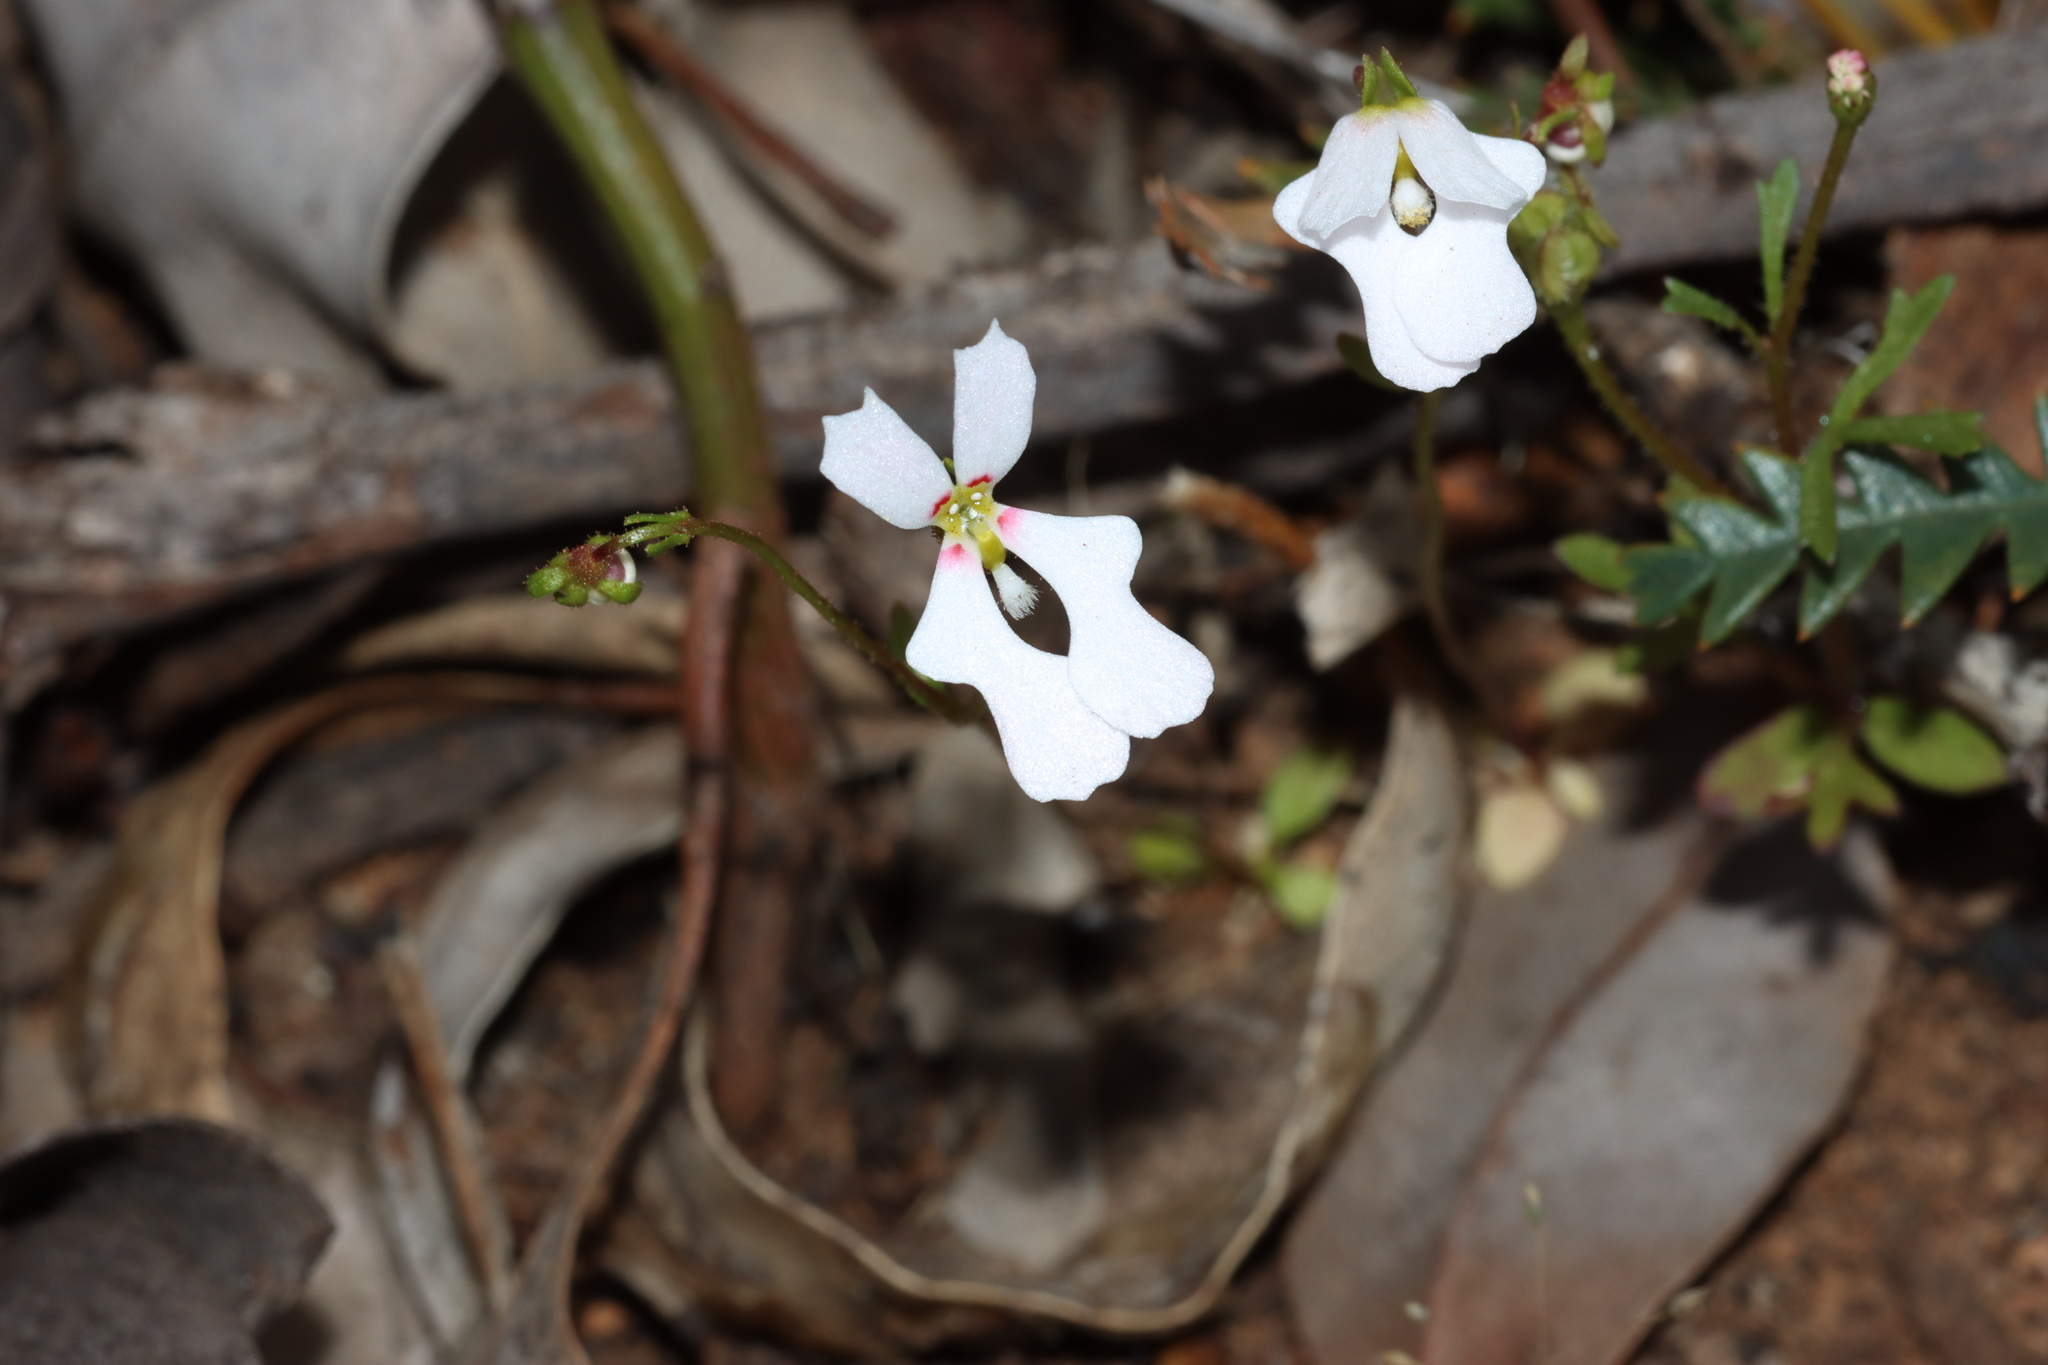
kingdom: Plantae
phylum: Tracheophyta
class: Magnoliopsida
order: Asterales
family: Stylidiaceae
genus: Stylidium
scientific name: Stylidium androsaceum
